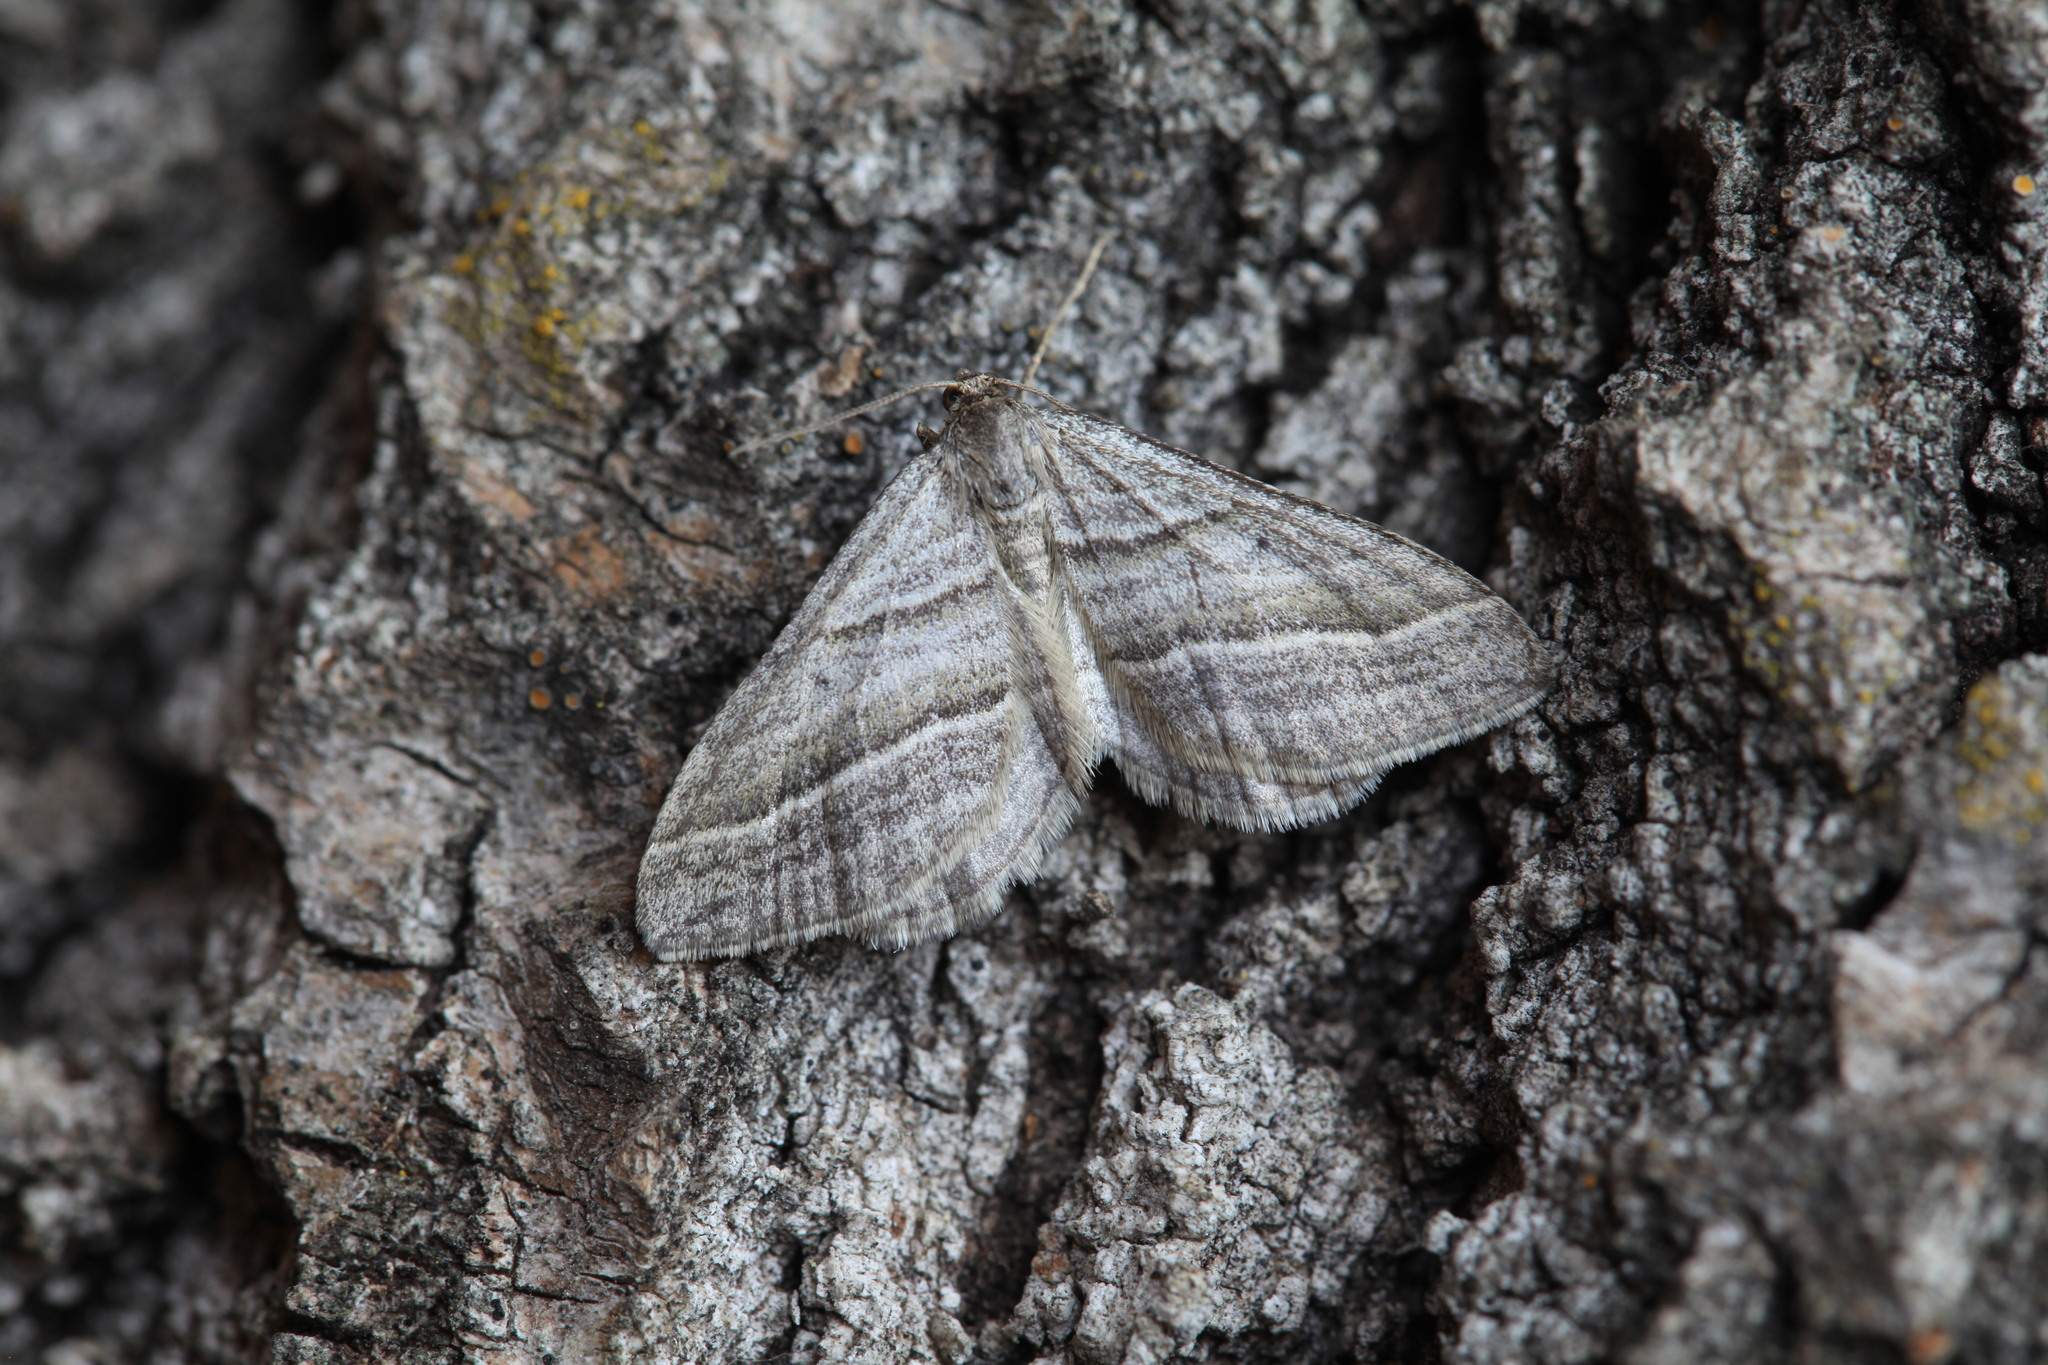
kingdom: Animalia
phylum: Arthropoda
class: Insecta
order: Lepidoptera
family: Geometridae
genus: Phibalapteryx
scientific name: Phibalapteryx virgata
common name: Oblique striped
